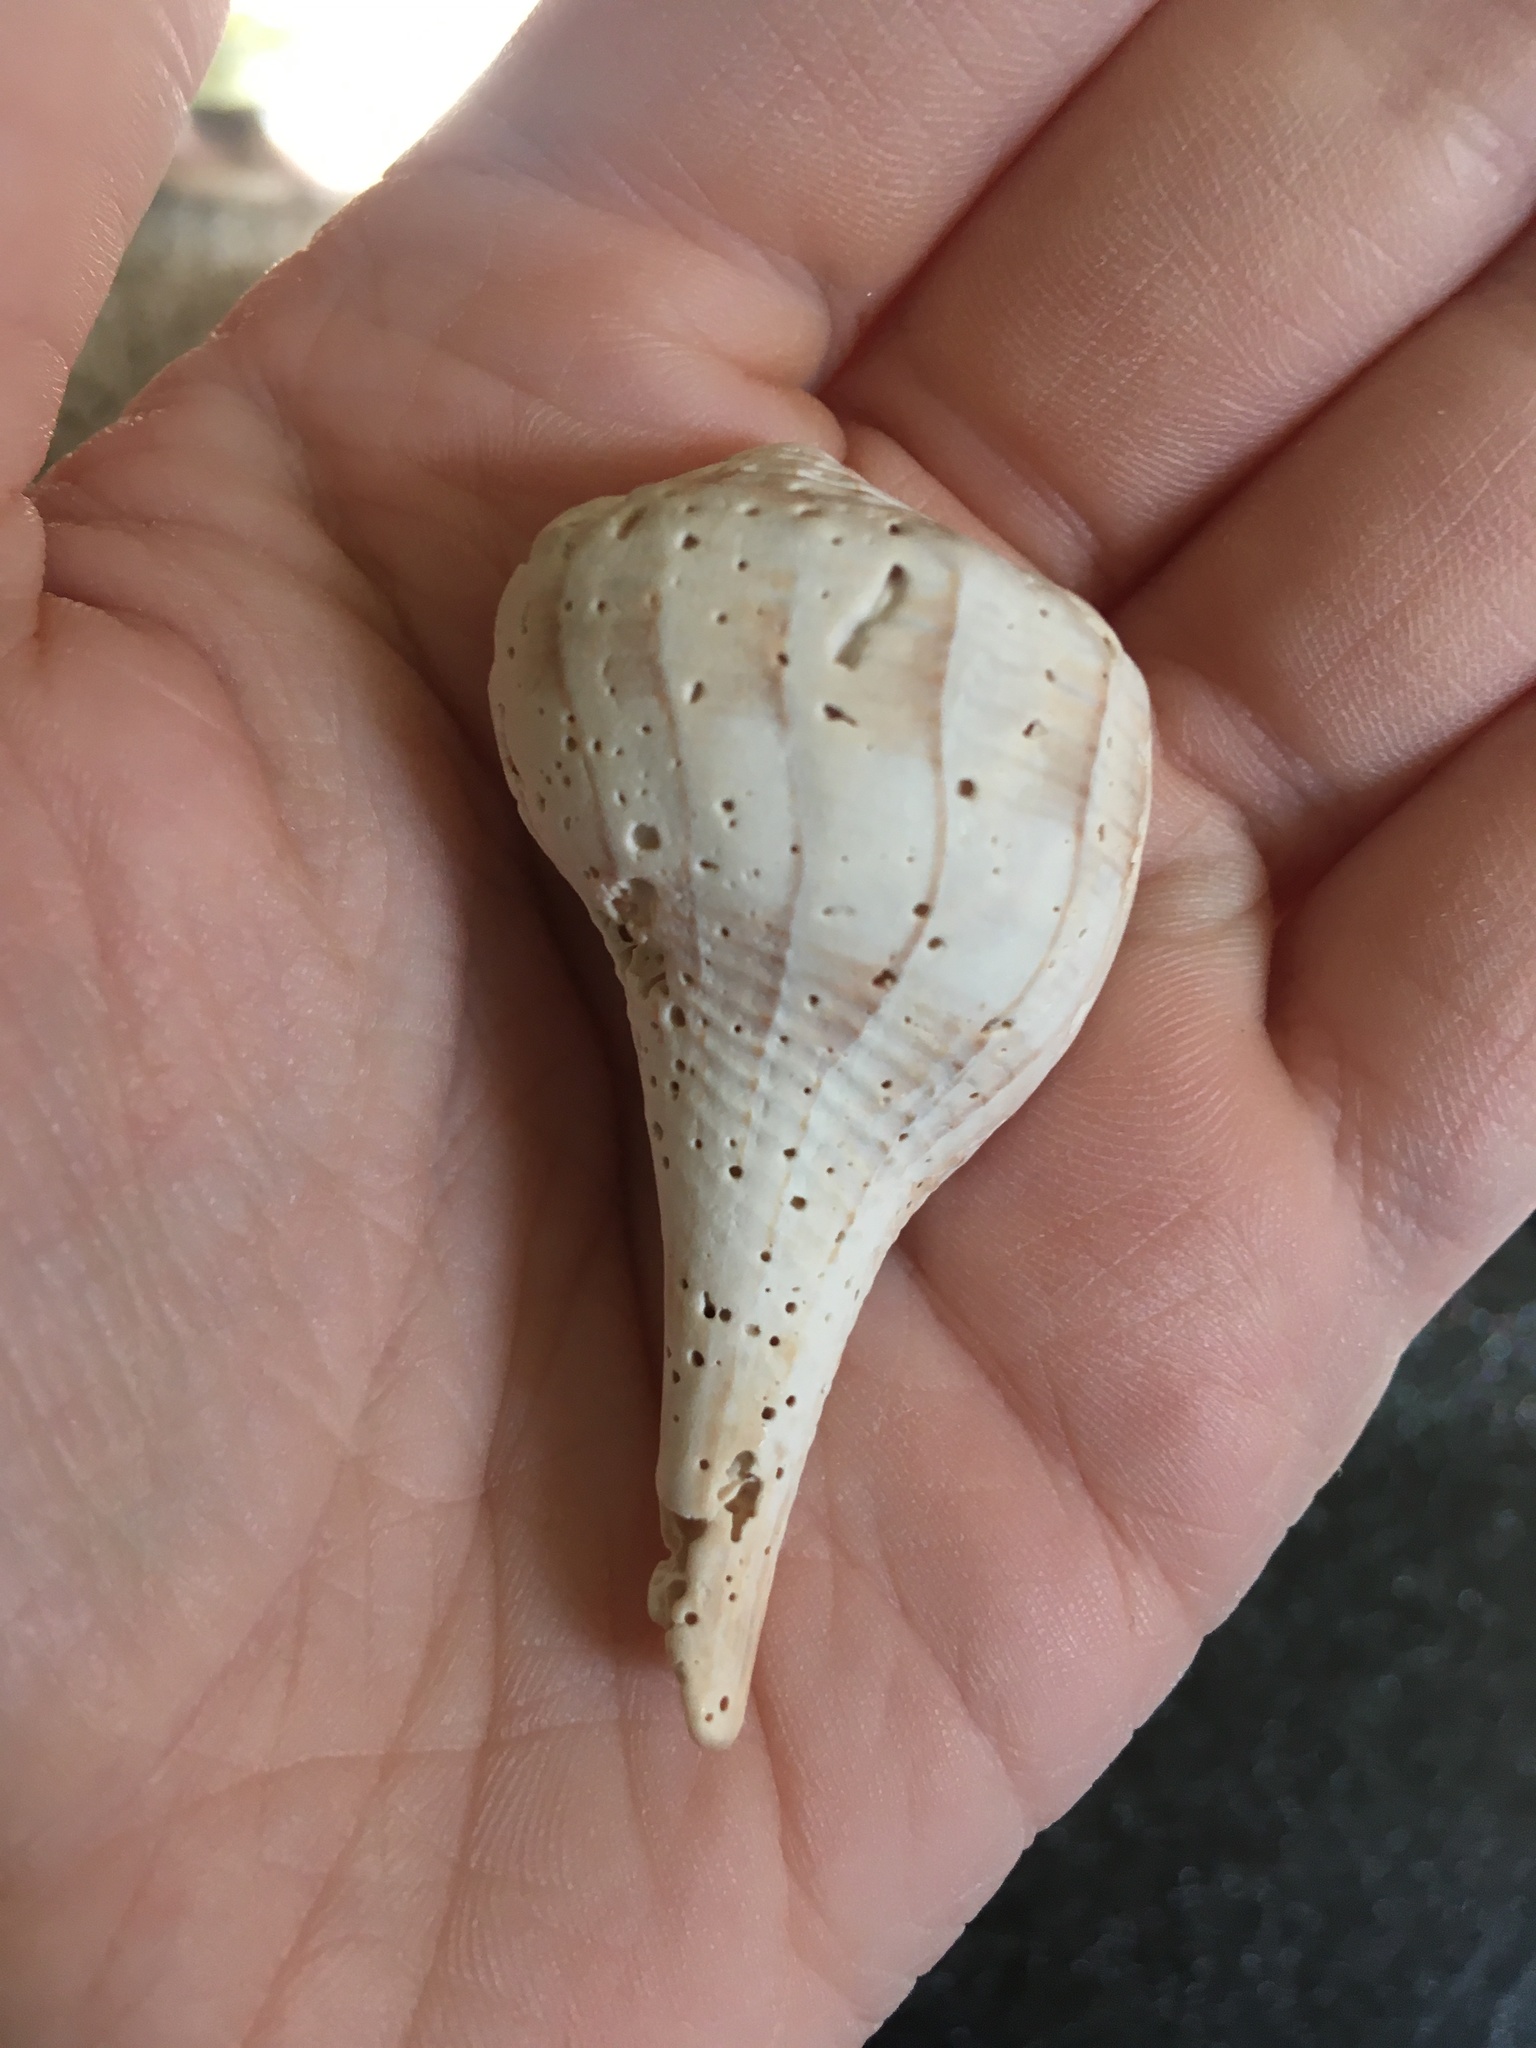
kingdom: Animalia
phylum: Mollusca
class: Gastropoda
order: Neogastropoda
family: Busyconidae
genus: Sinistrofulgur
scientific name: Sinistrofulgur sinistrum
